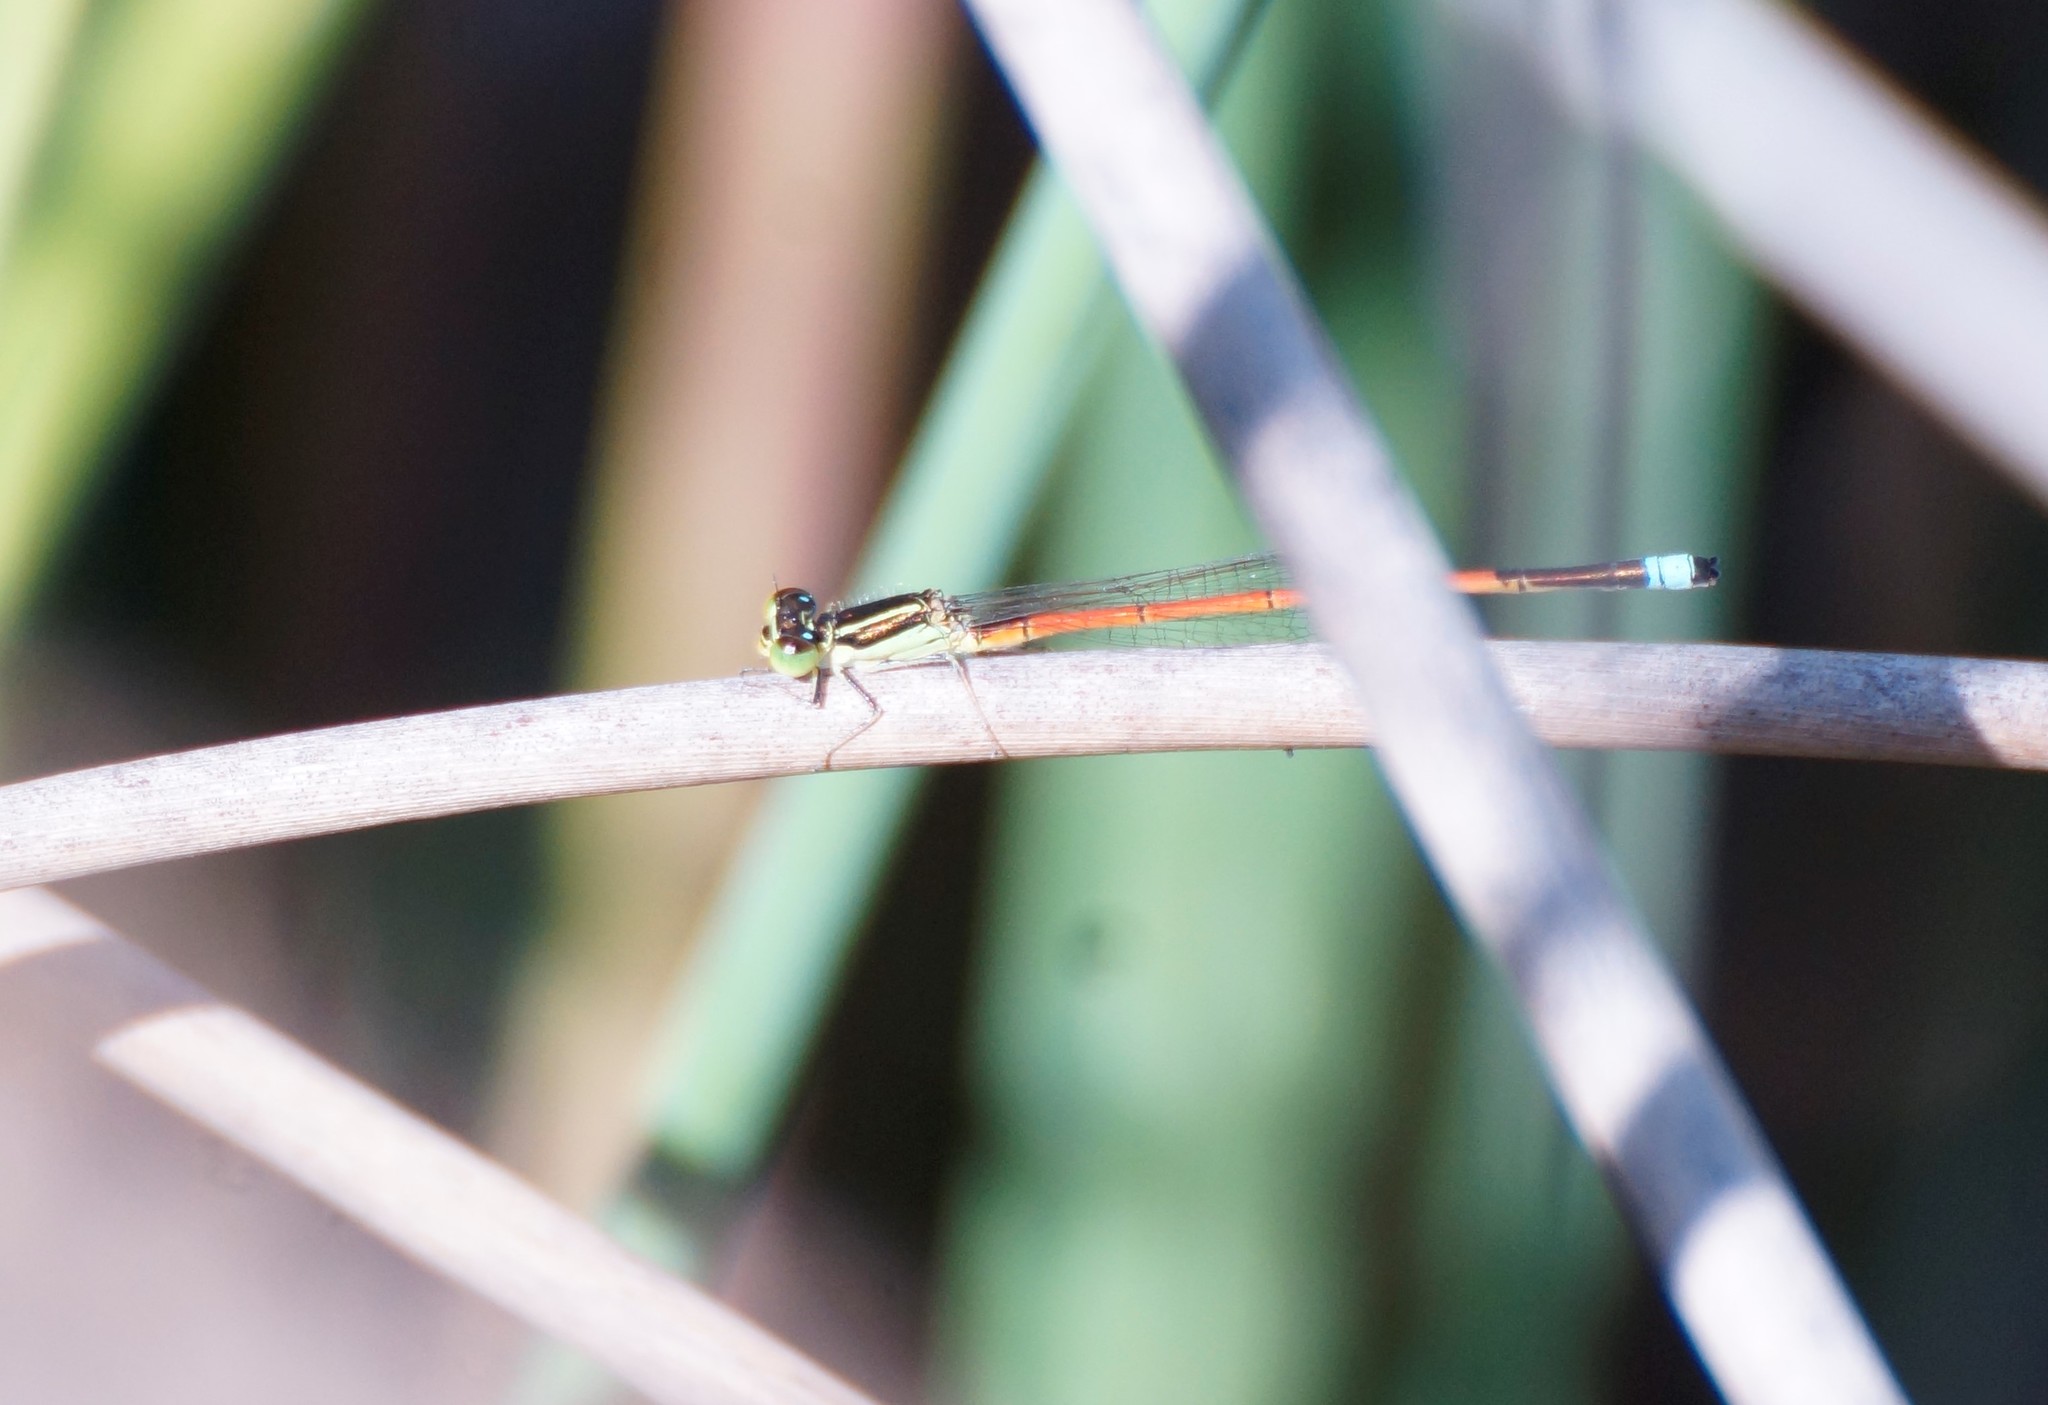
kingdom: Animalia
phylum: Arthropoda
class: Insecta
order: Odonata
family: Coenagrionidae
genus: Ischnura
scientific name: Ischnura aurora
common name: Gossamer damselfly
